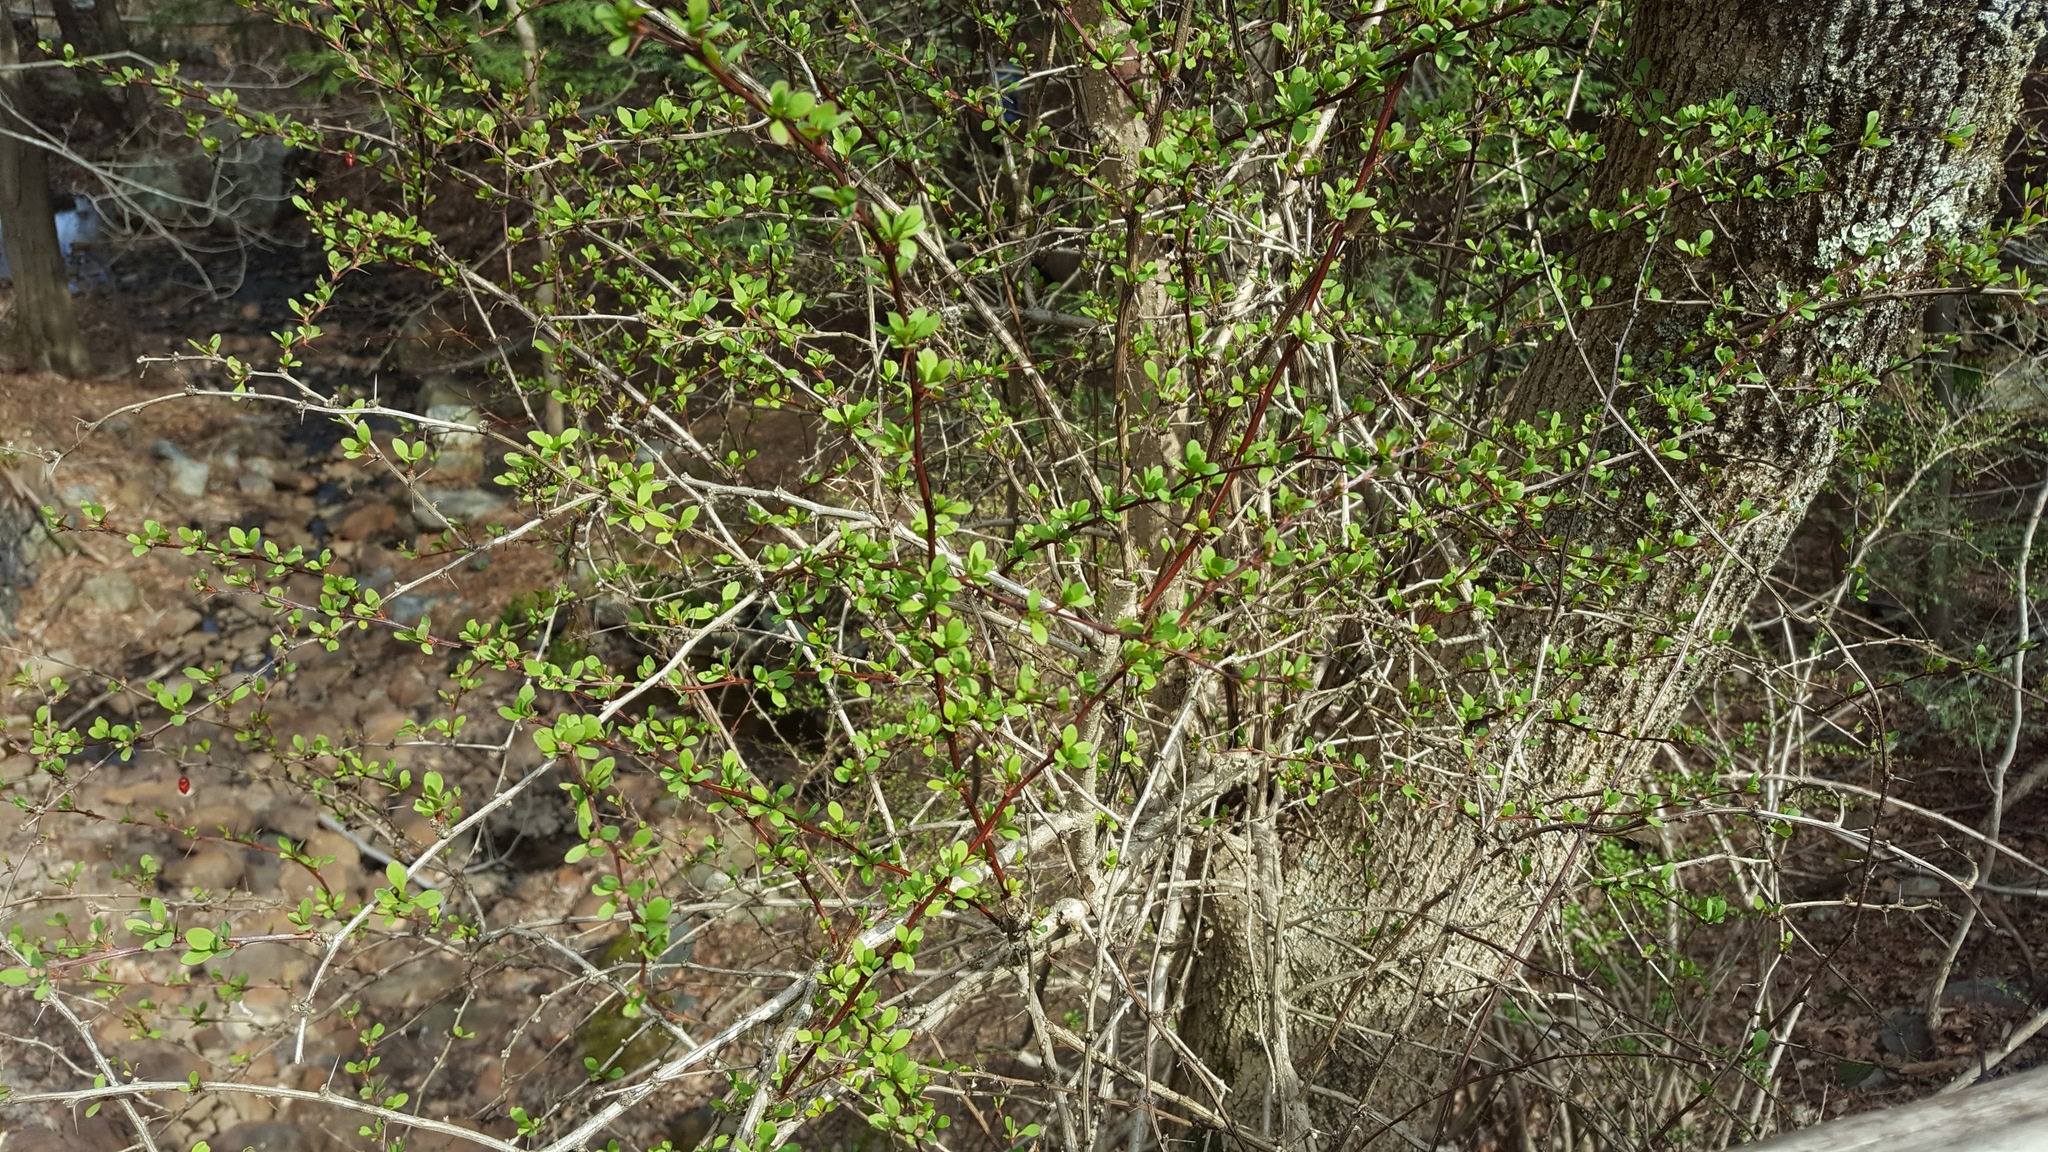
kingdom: Plantae
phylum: Tracheophyta
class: Magnoliopsida
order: Ranunculales
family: Berberidaceae
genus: Berberis
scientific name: Berberis thunbergii
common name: Japanese barberry
